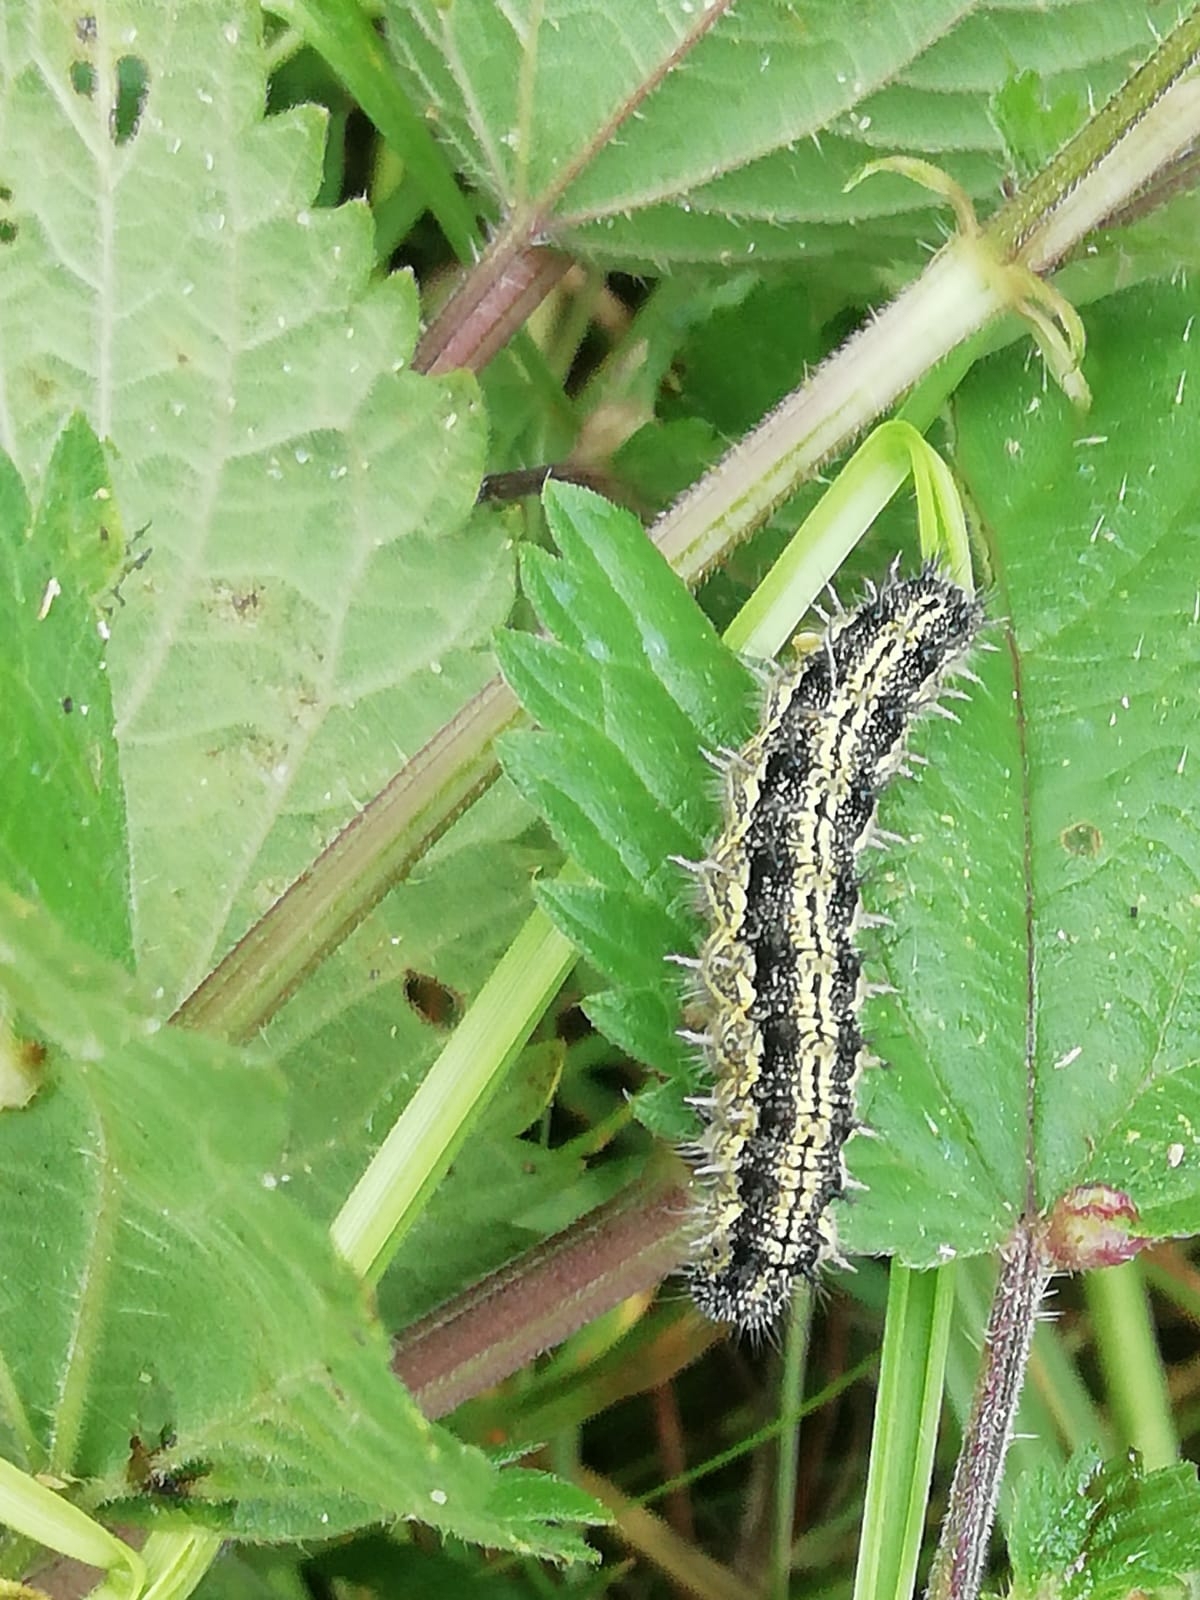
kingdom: Animalia
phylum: Arthropoda
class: Insecta
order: Lepidoptera
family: Nymphalidae
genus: Aglais
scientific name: Aglais urticae
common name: Small tortoiseshell
